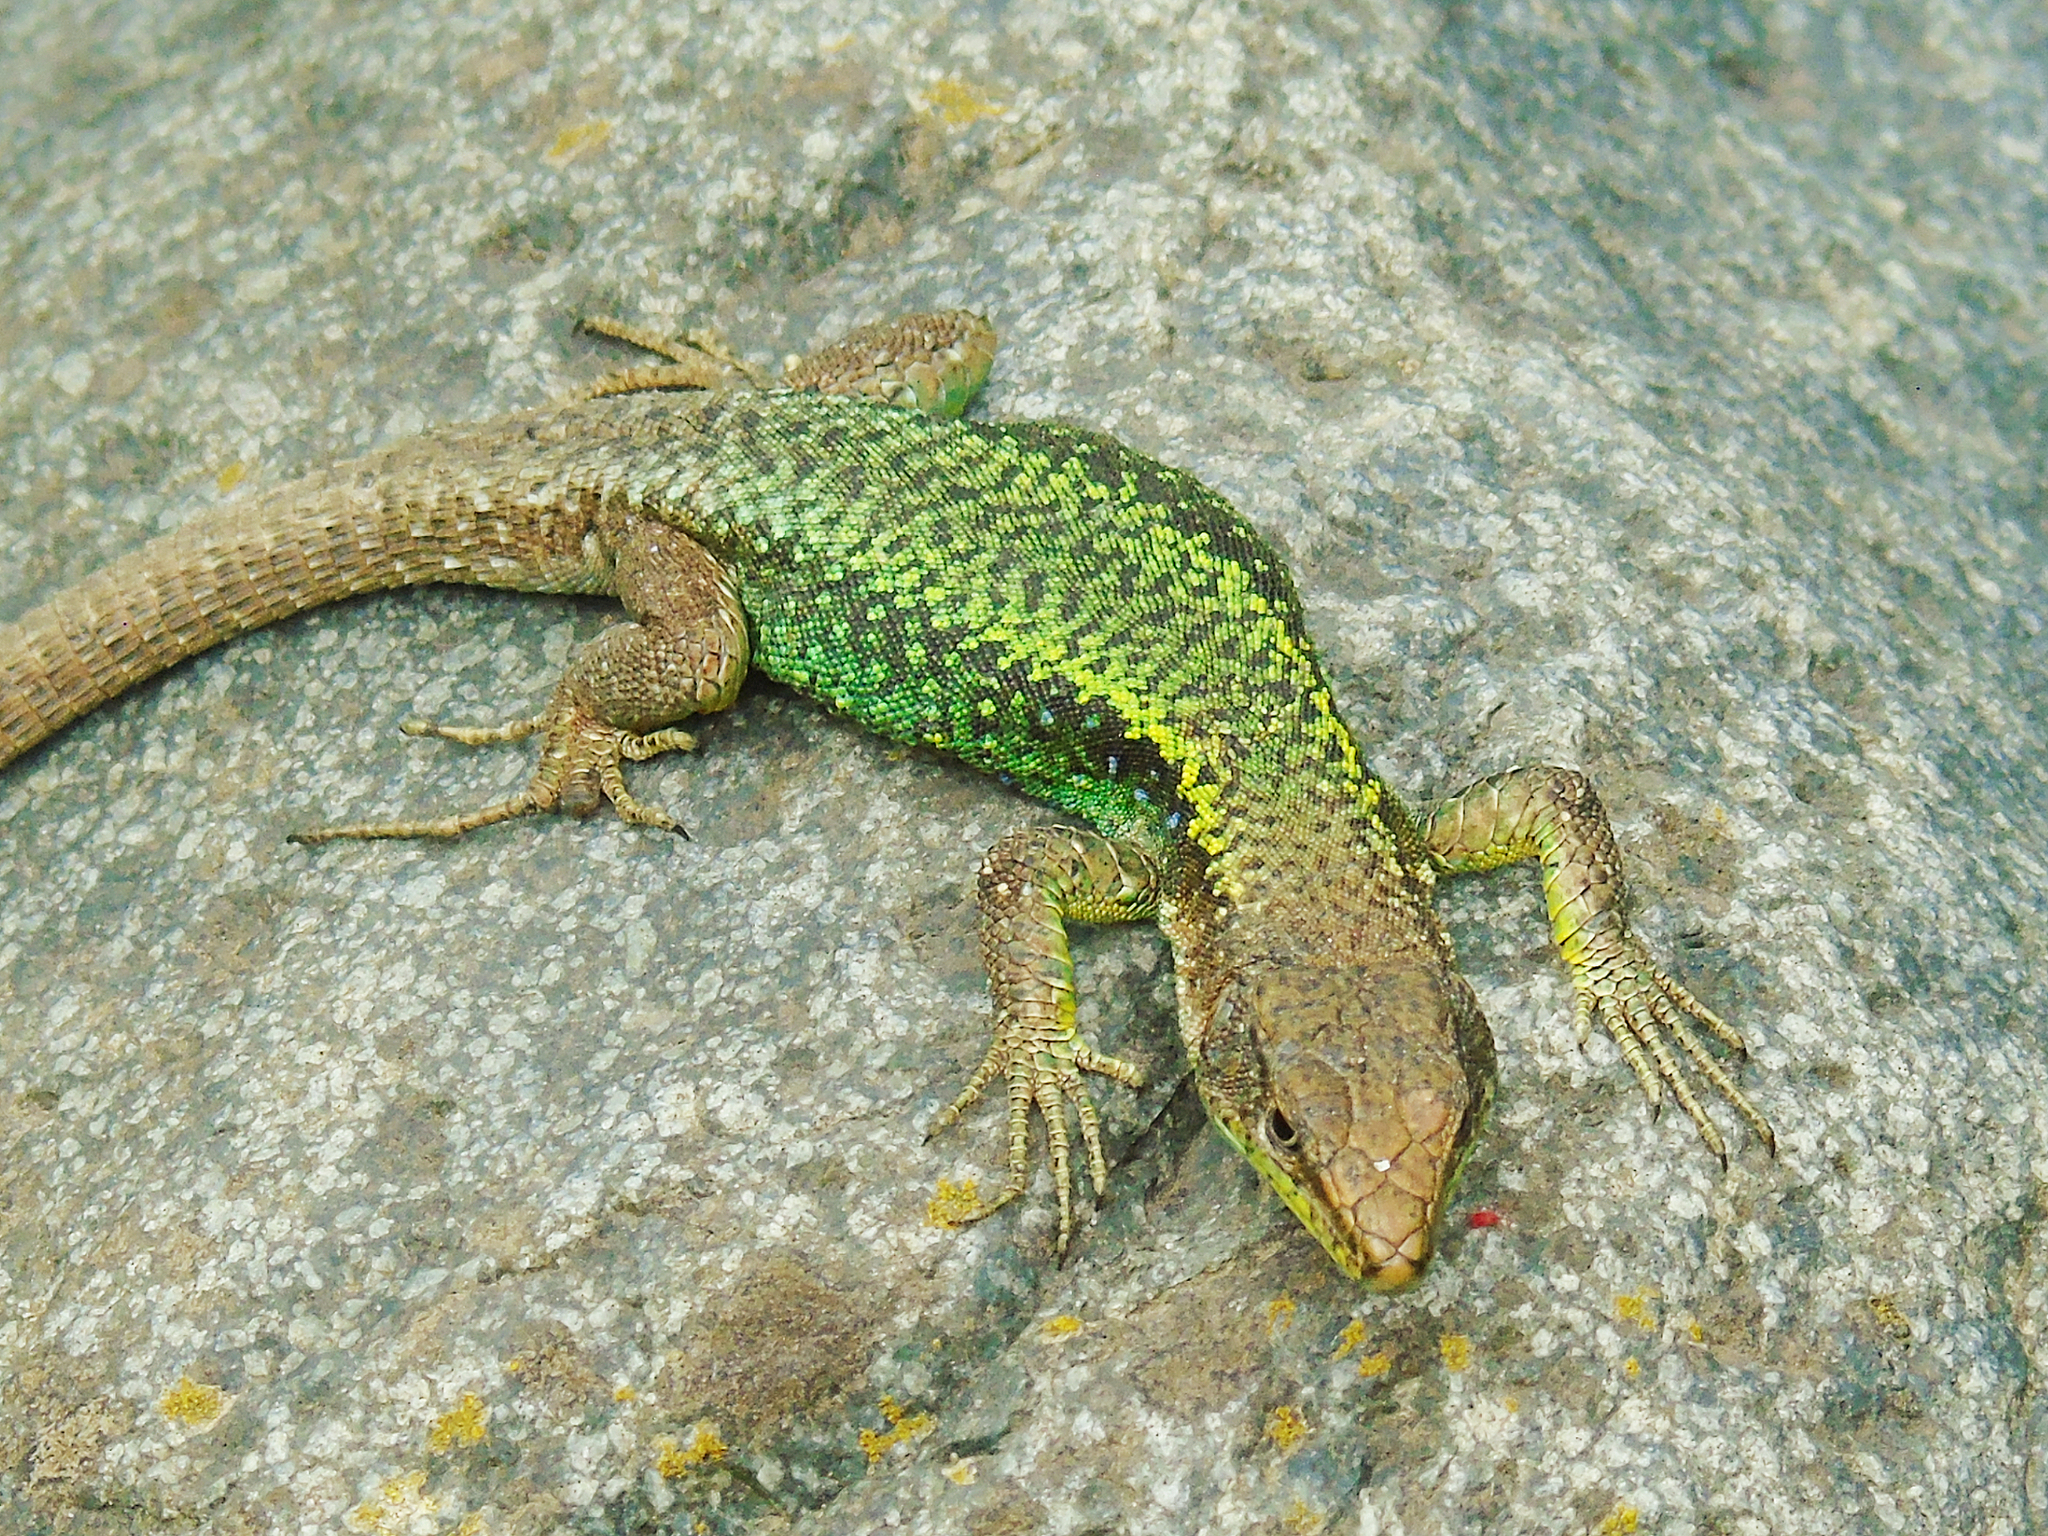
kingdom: Animalia
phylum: Chordata
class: Squamata
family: Lacertidae
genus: Darevskia
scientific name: Darevskia rudis
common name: Spiny-tailed lizard
